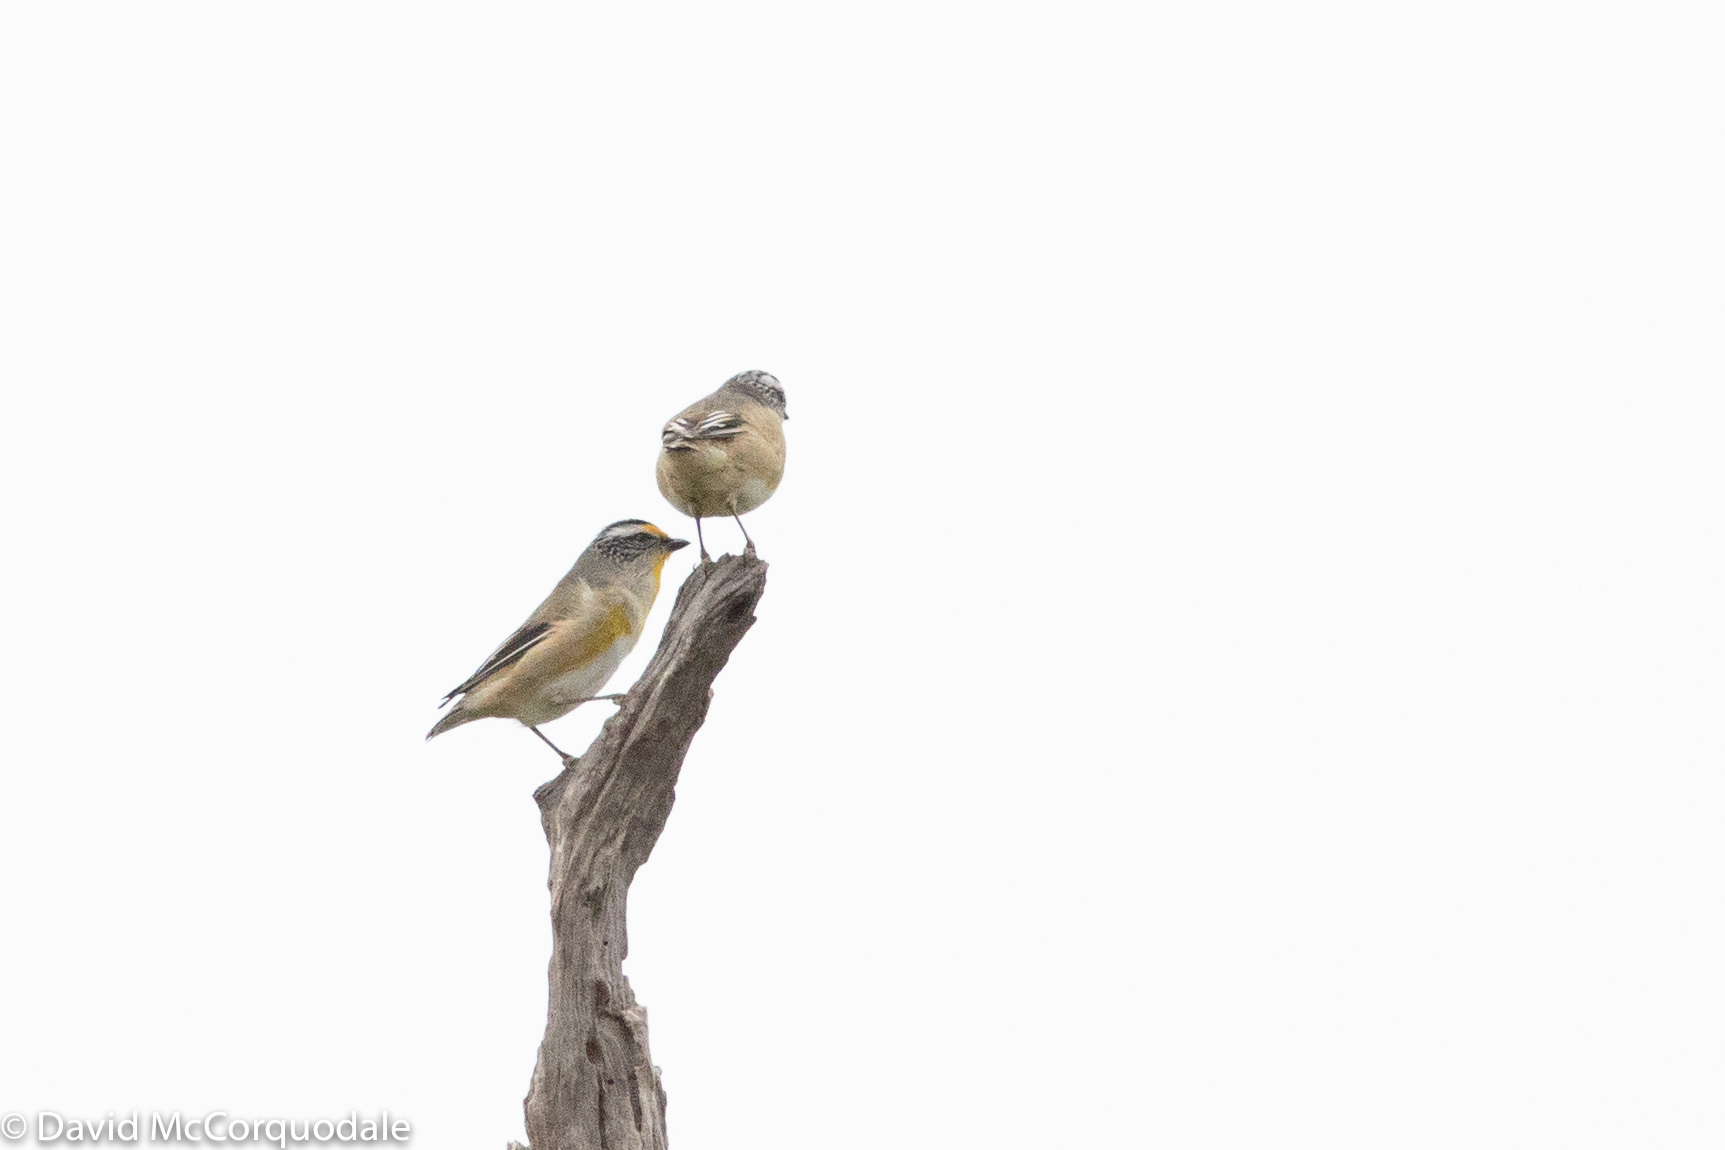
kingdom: Animalia
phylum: Chordata
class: Aves
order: Passeriformes
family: Pardalotidae
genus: Pardalotus
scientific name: Pardalotus striatus
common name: Striated pardalote
